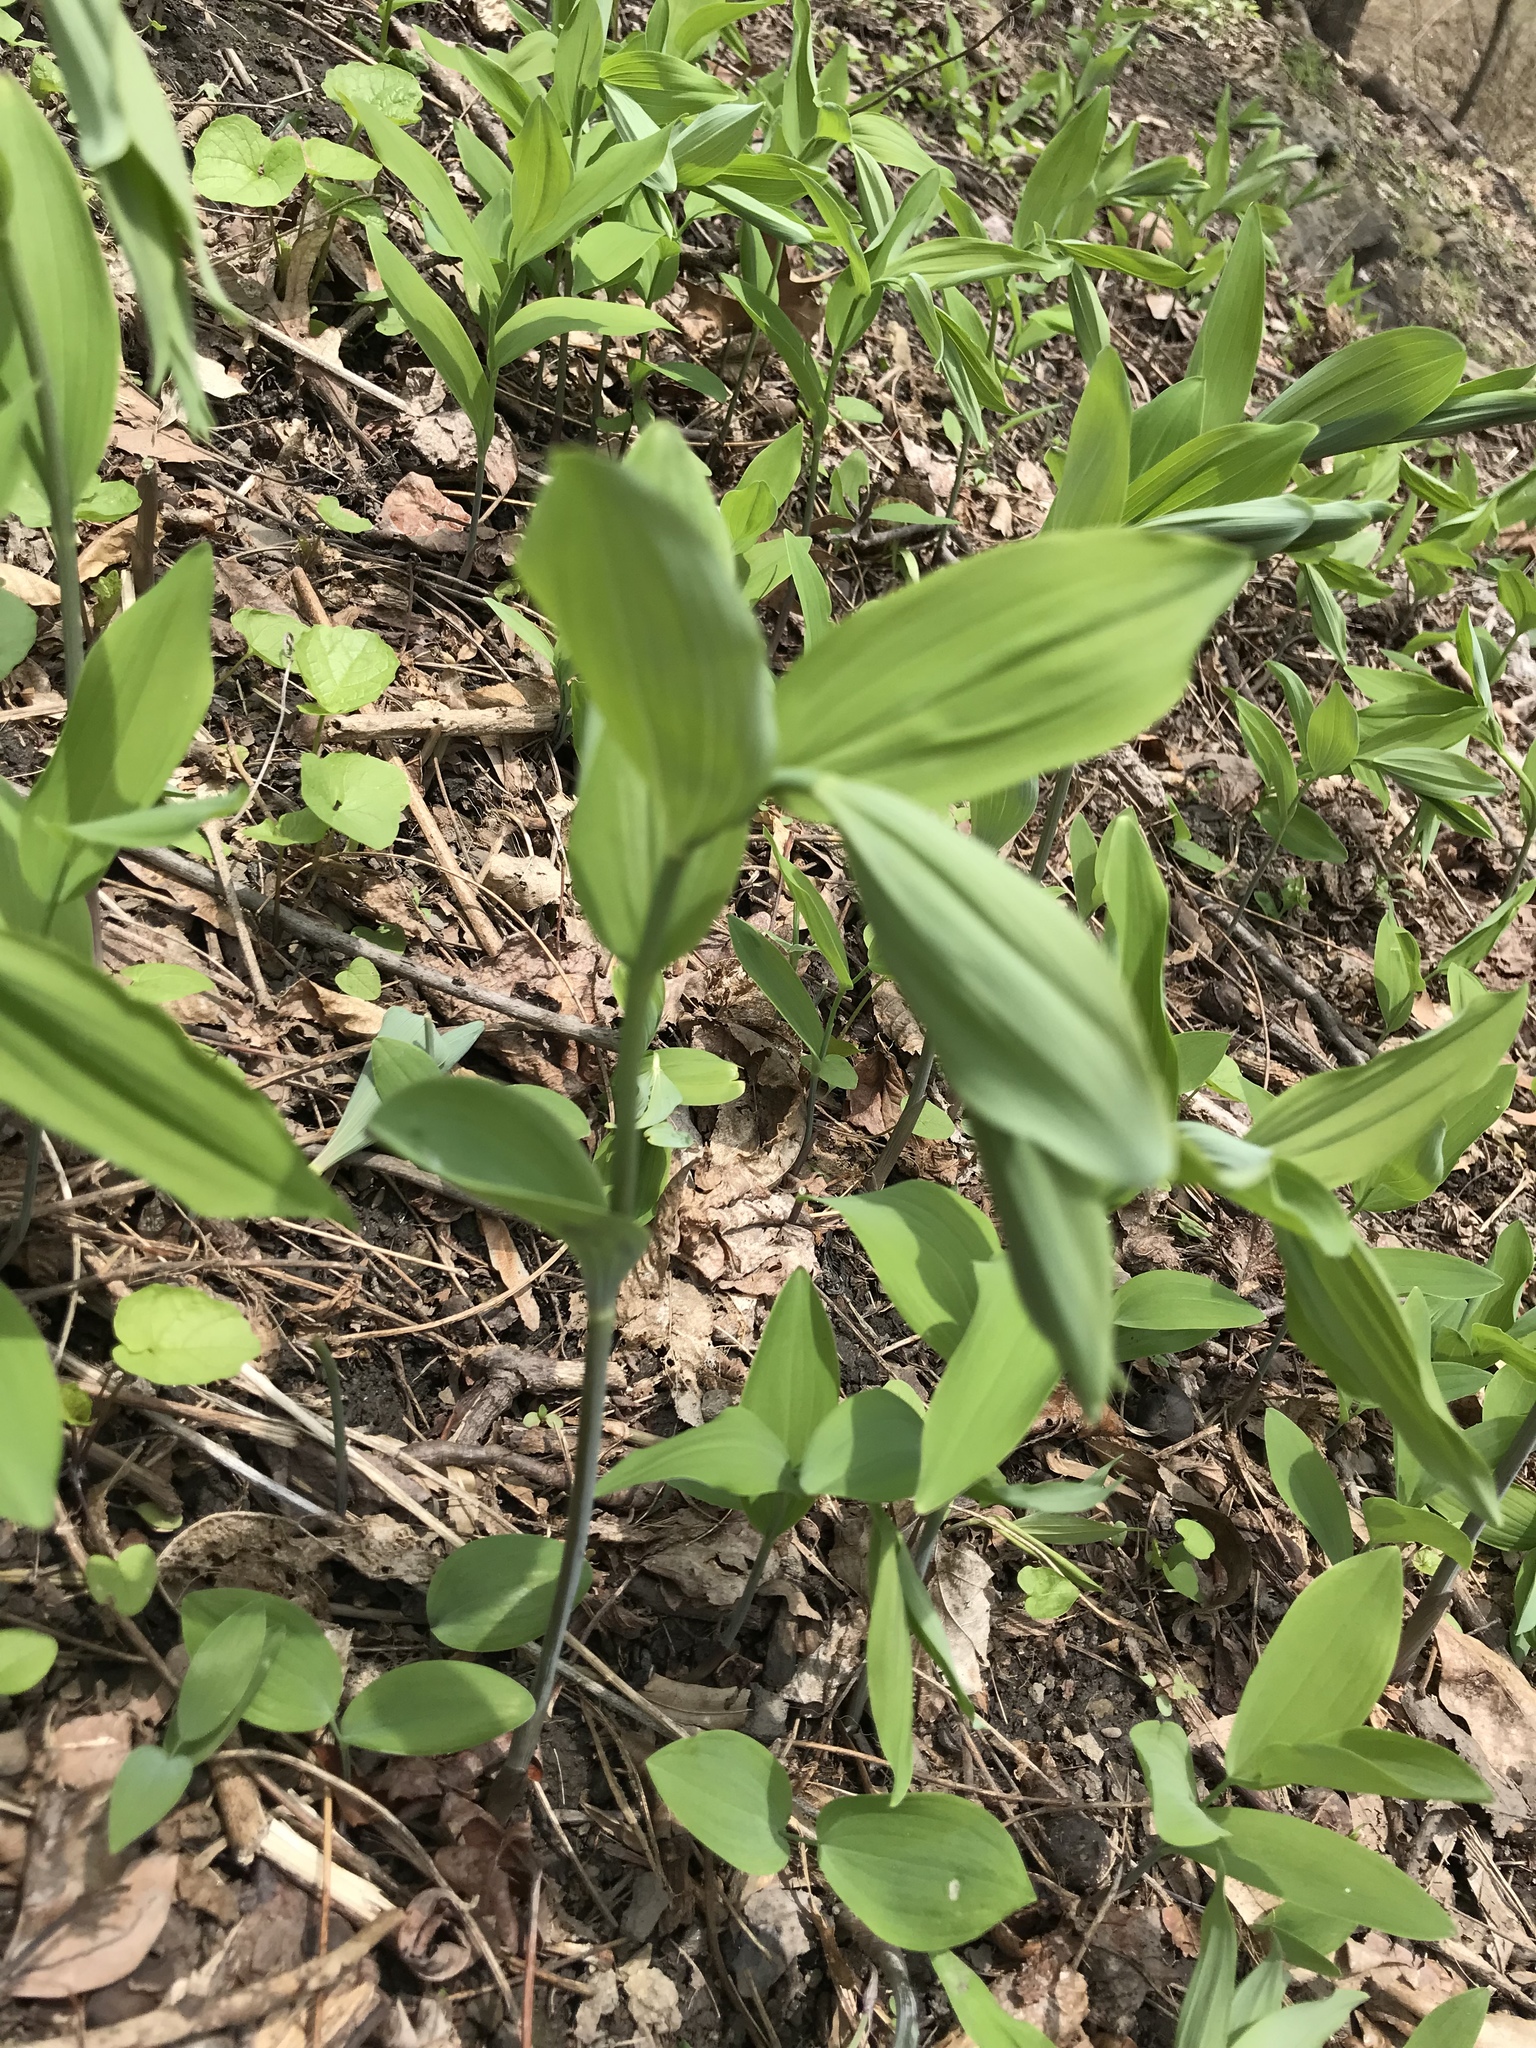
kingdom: Plantae
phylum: Tracheophyta
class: Liliopsida
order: Asparagales
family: Asparagaceae
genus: Polygonatum
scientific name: Polygonatum biflorum
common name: American solomon's-seal
